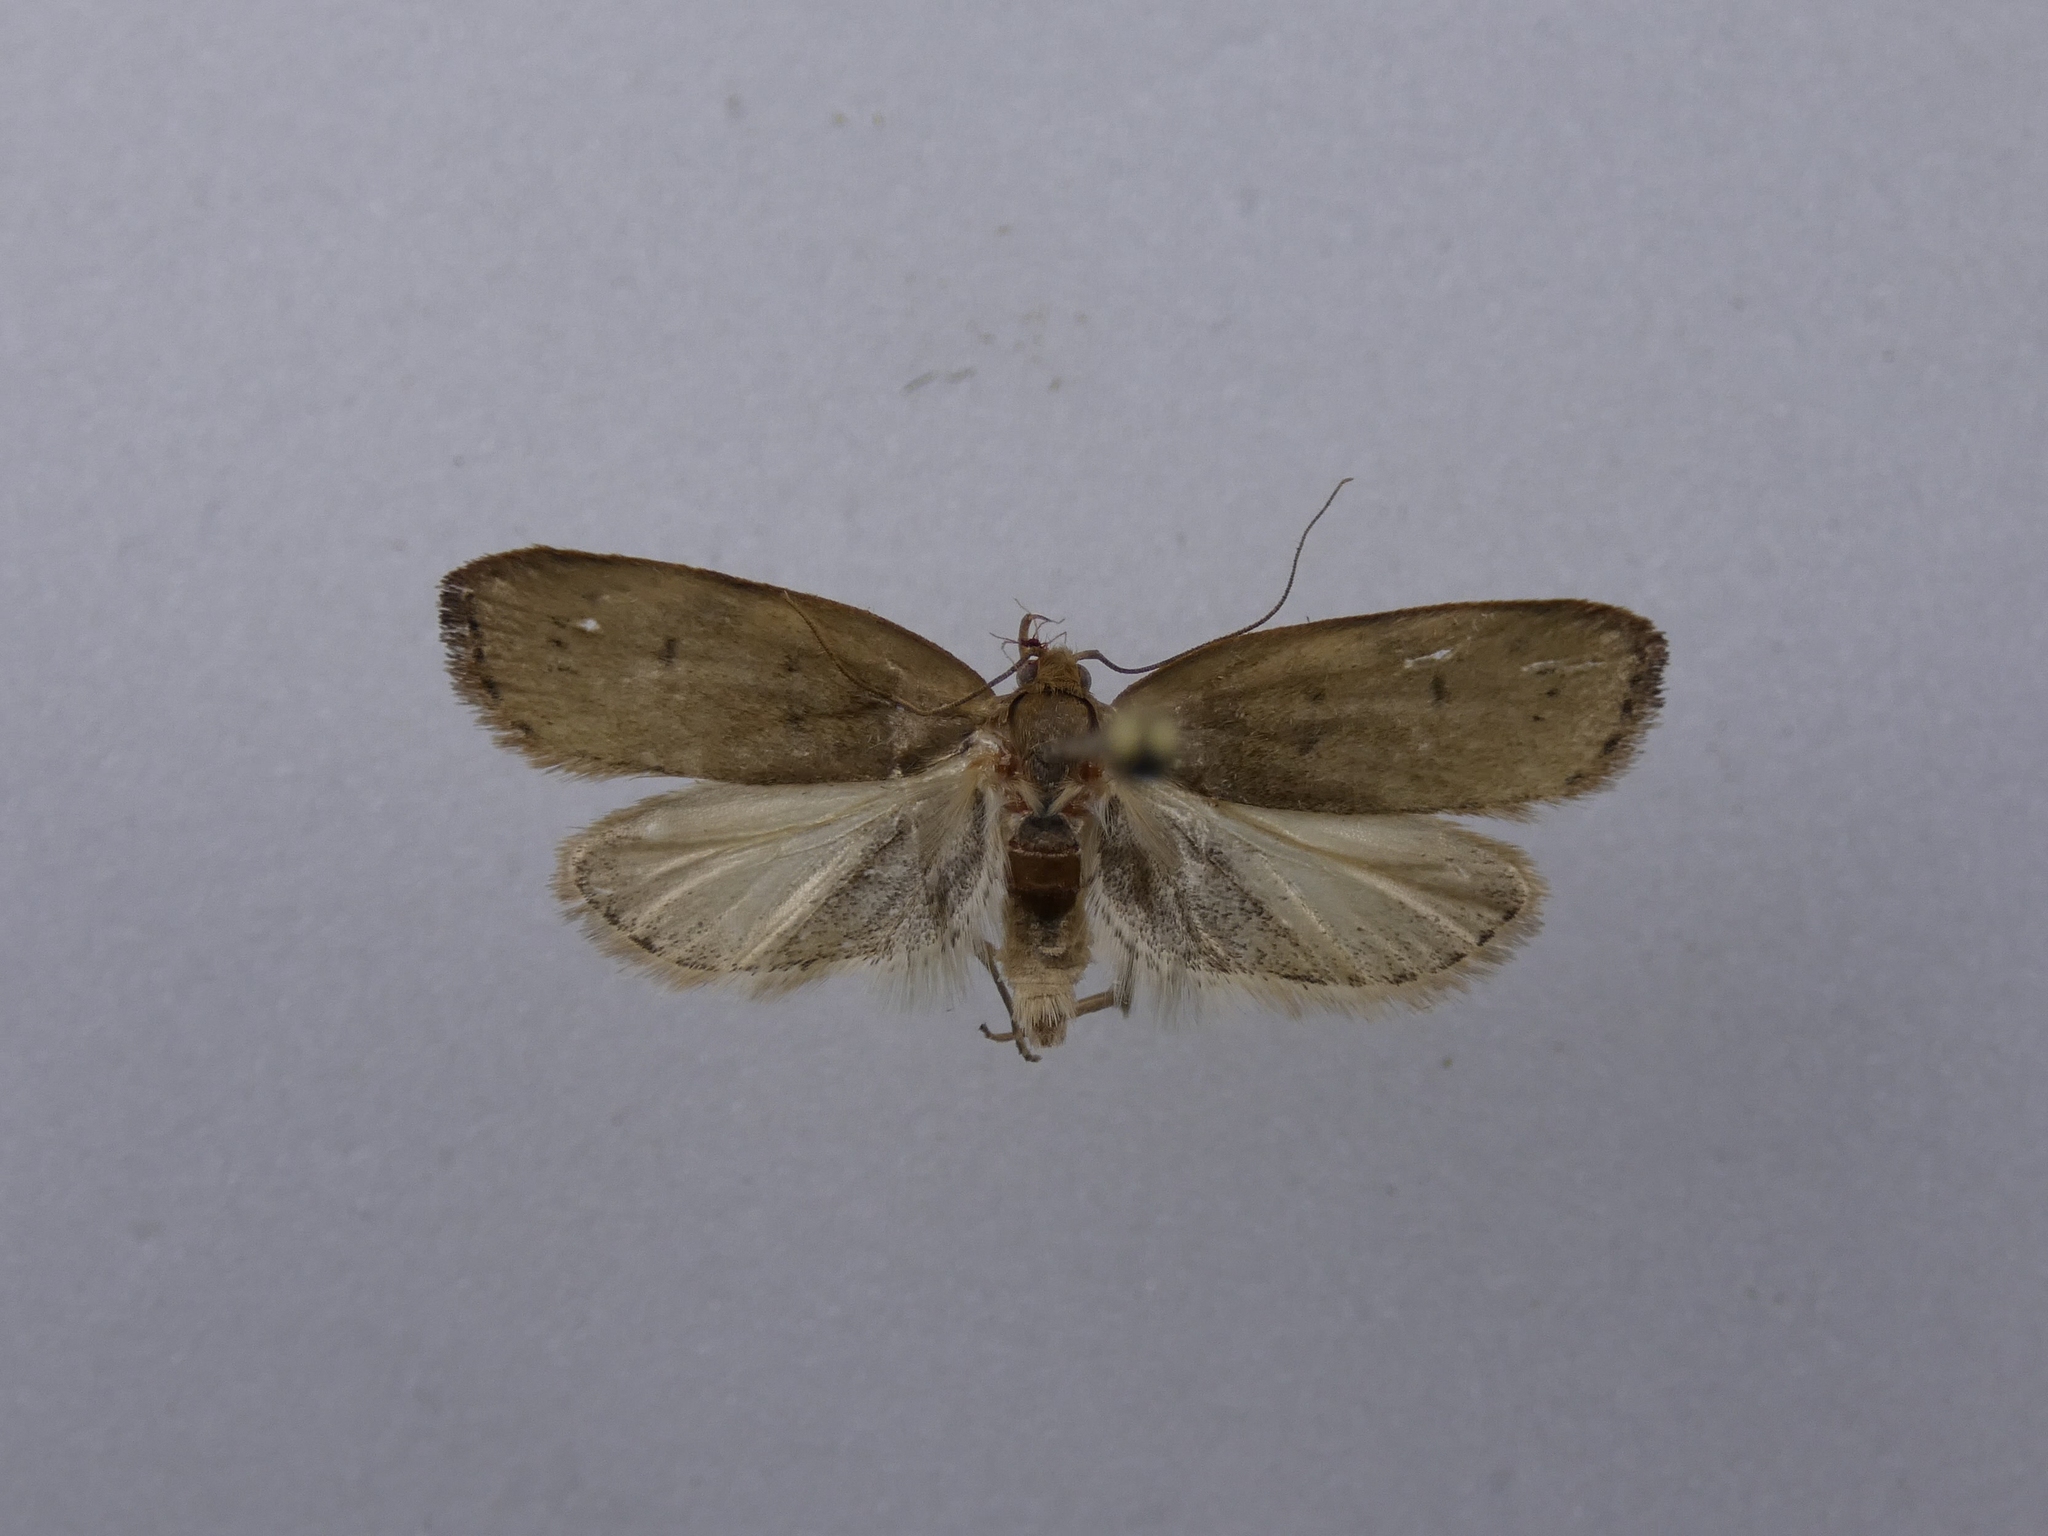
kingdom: Animalia
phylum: Arthropoda
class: Insecta
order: Lepidoptera
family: Depressariidae
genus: Phaeosaces
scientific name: Phaeosaces coarctatella
